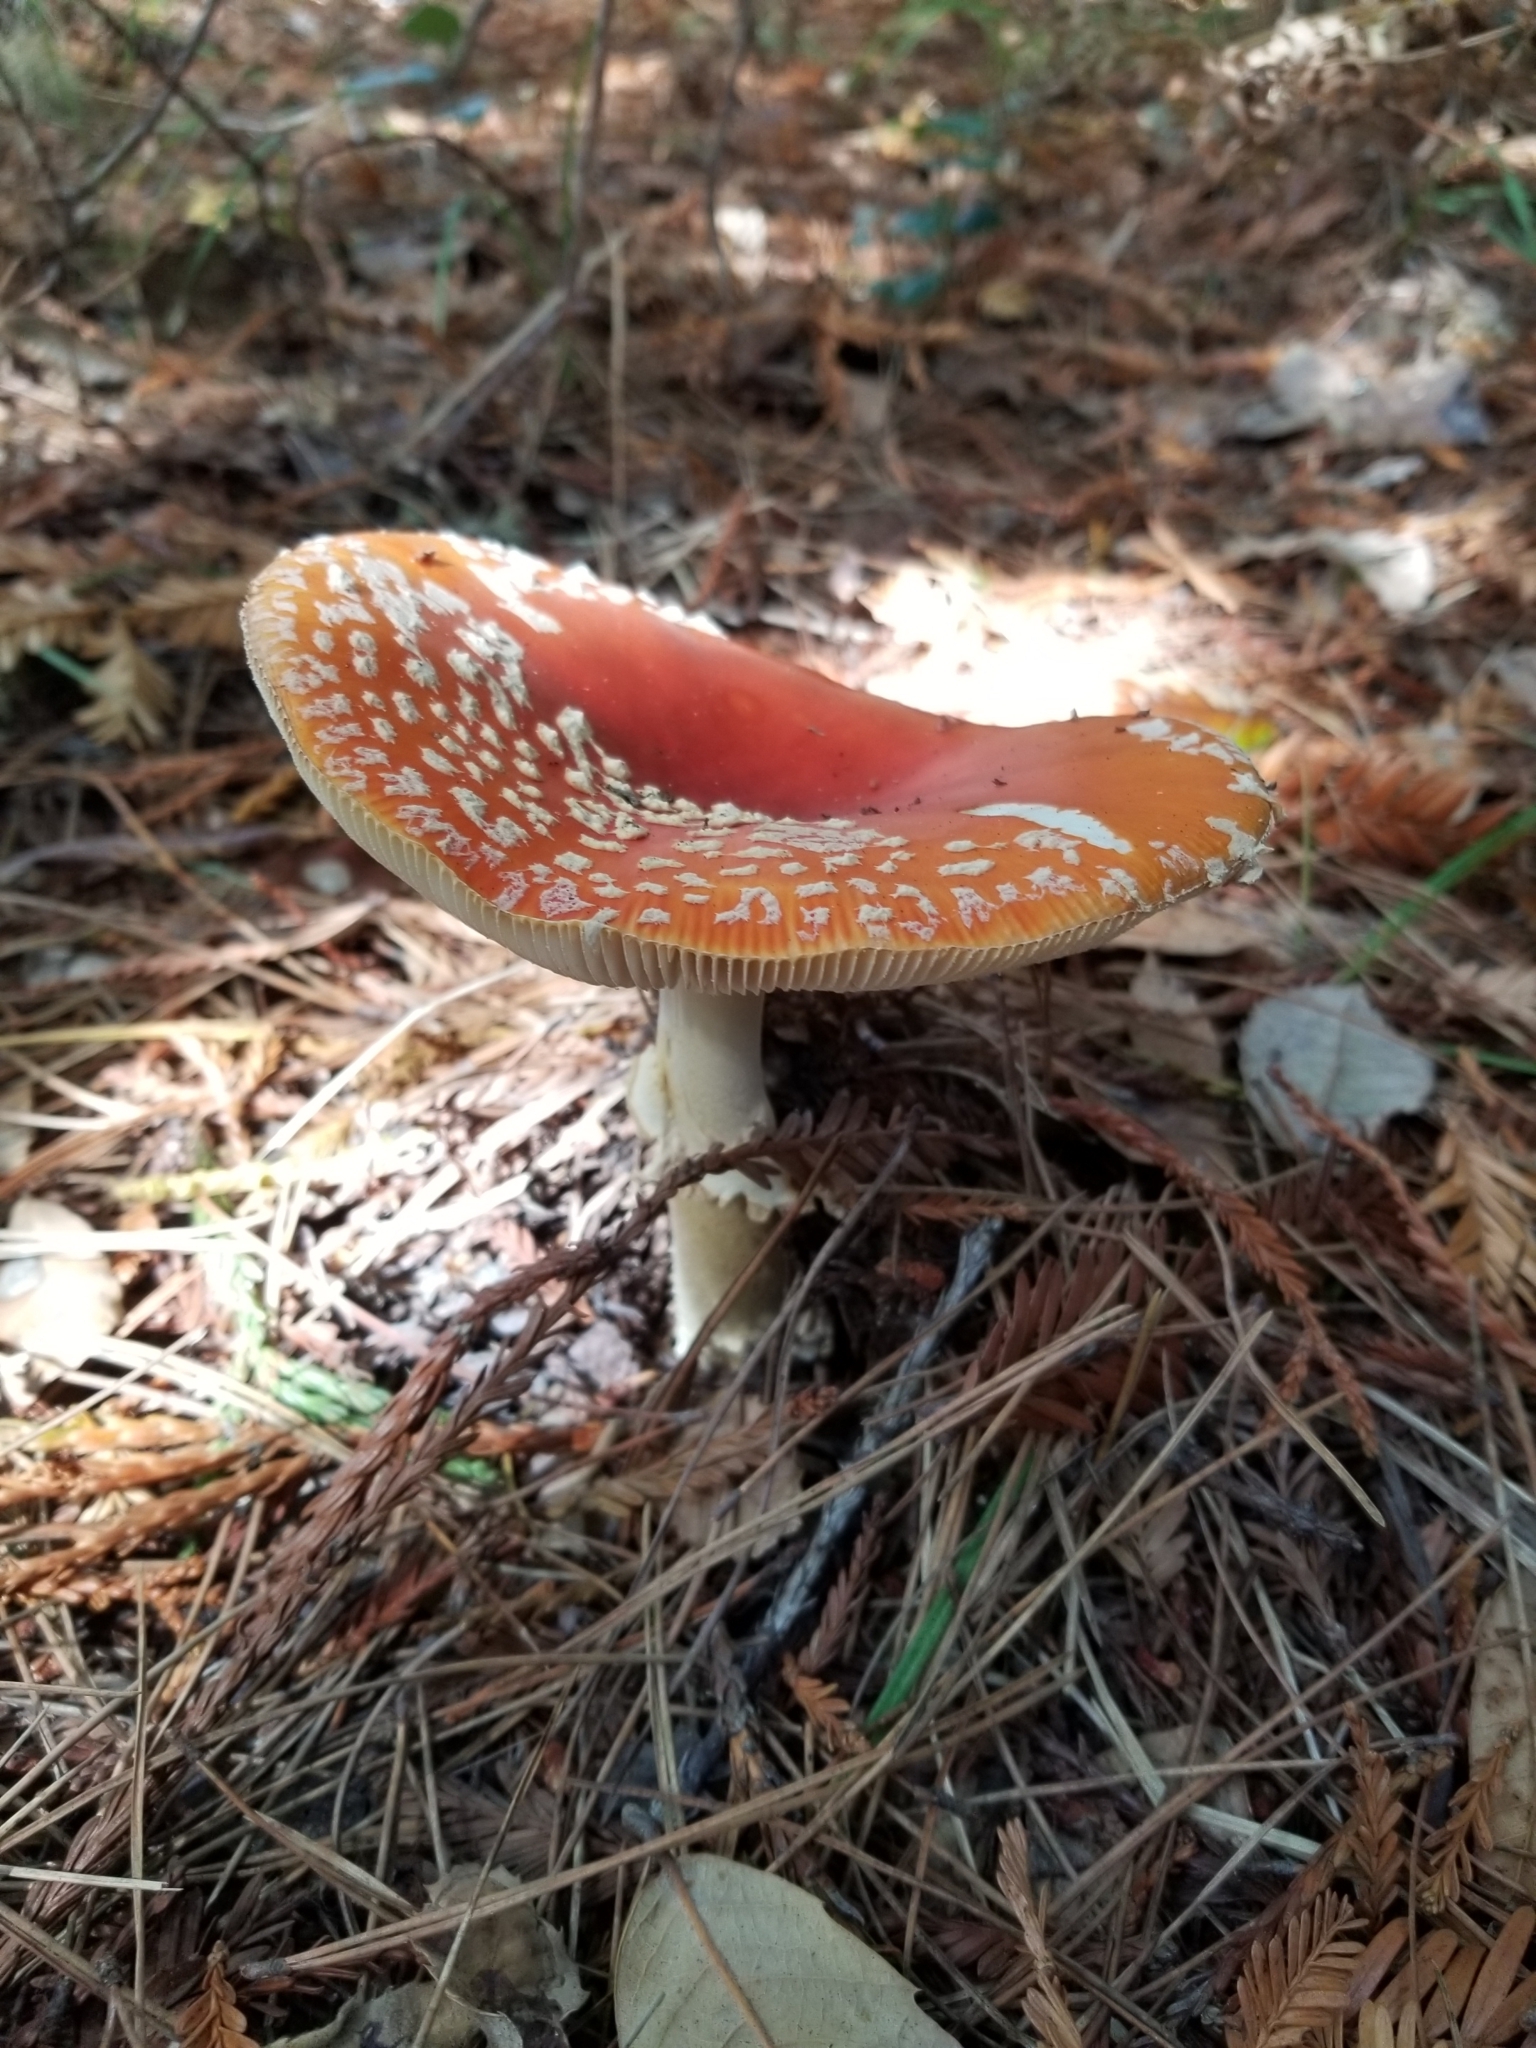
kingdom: Fungi
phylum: Basidiomycota
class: Agaricomycetes
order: Agaricales
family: Amanitaceae
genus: Amanita
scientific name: Amanita muscaria
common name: Fly agaric
